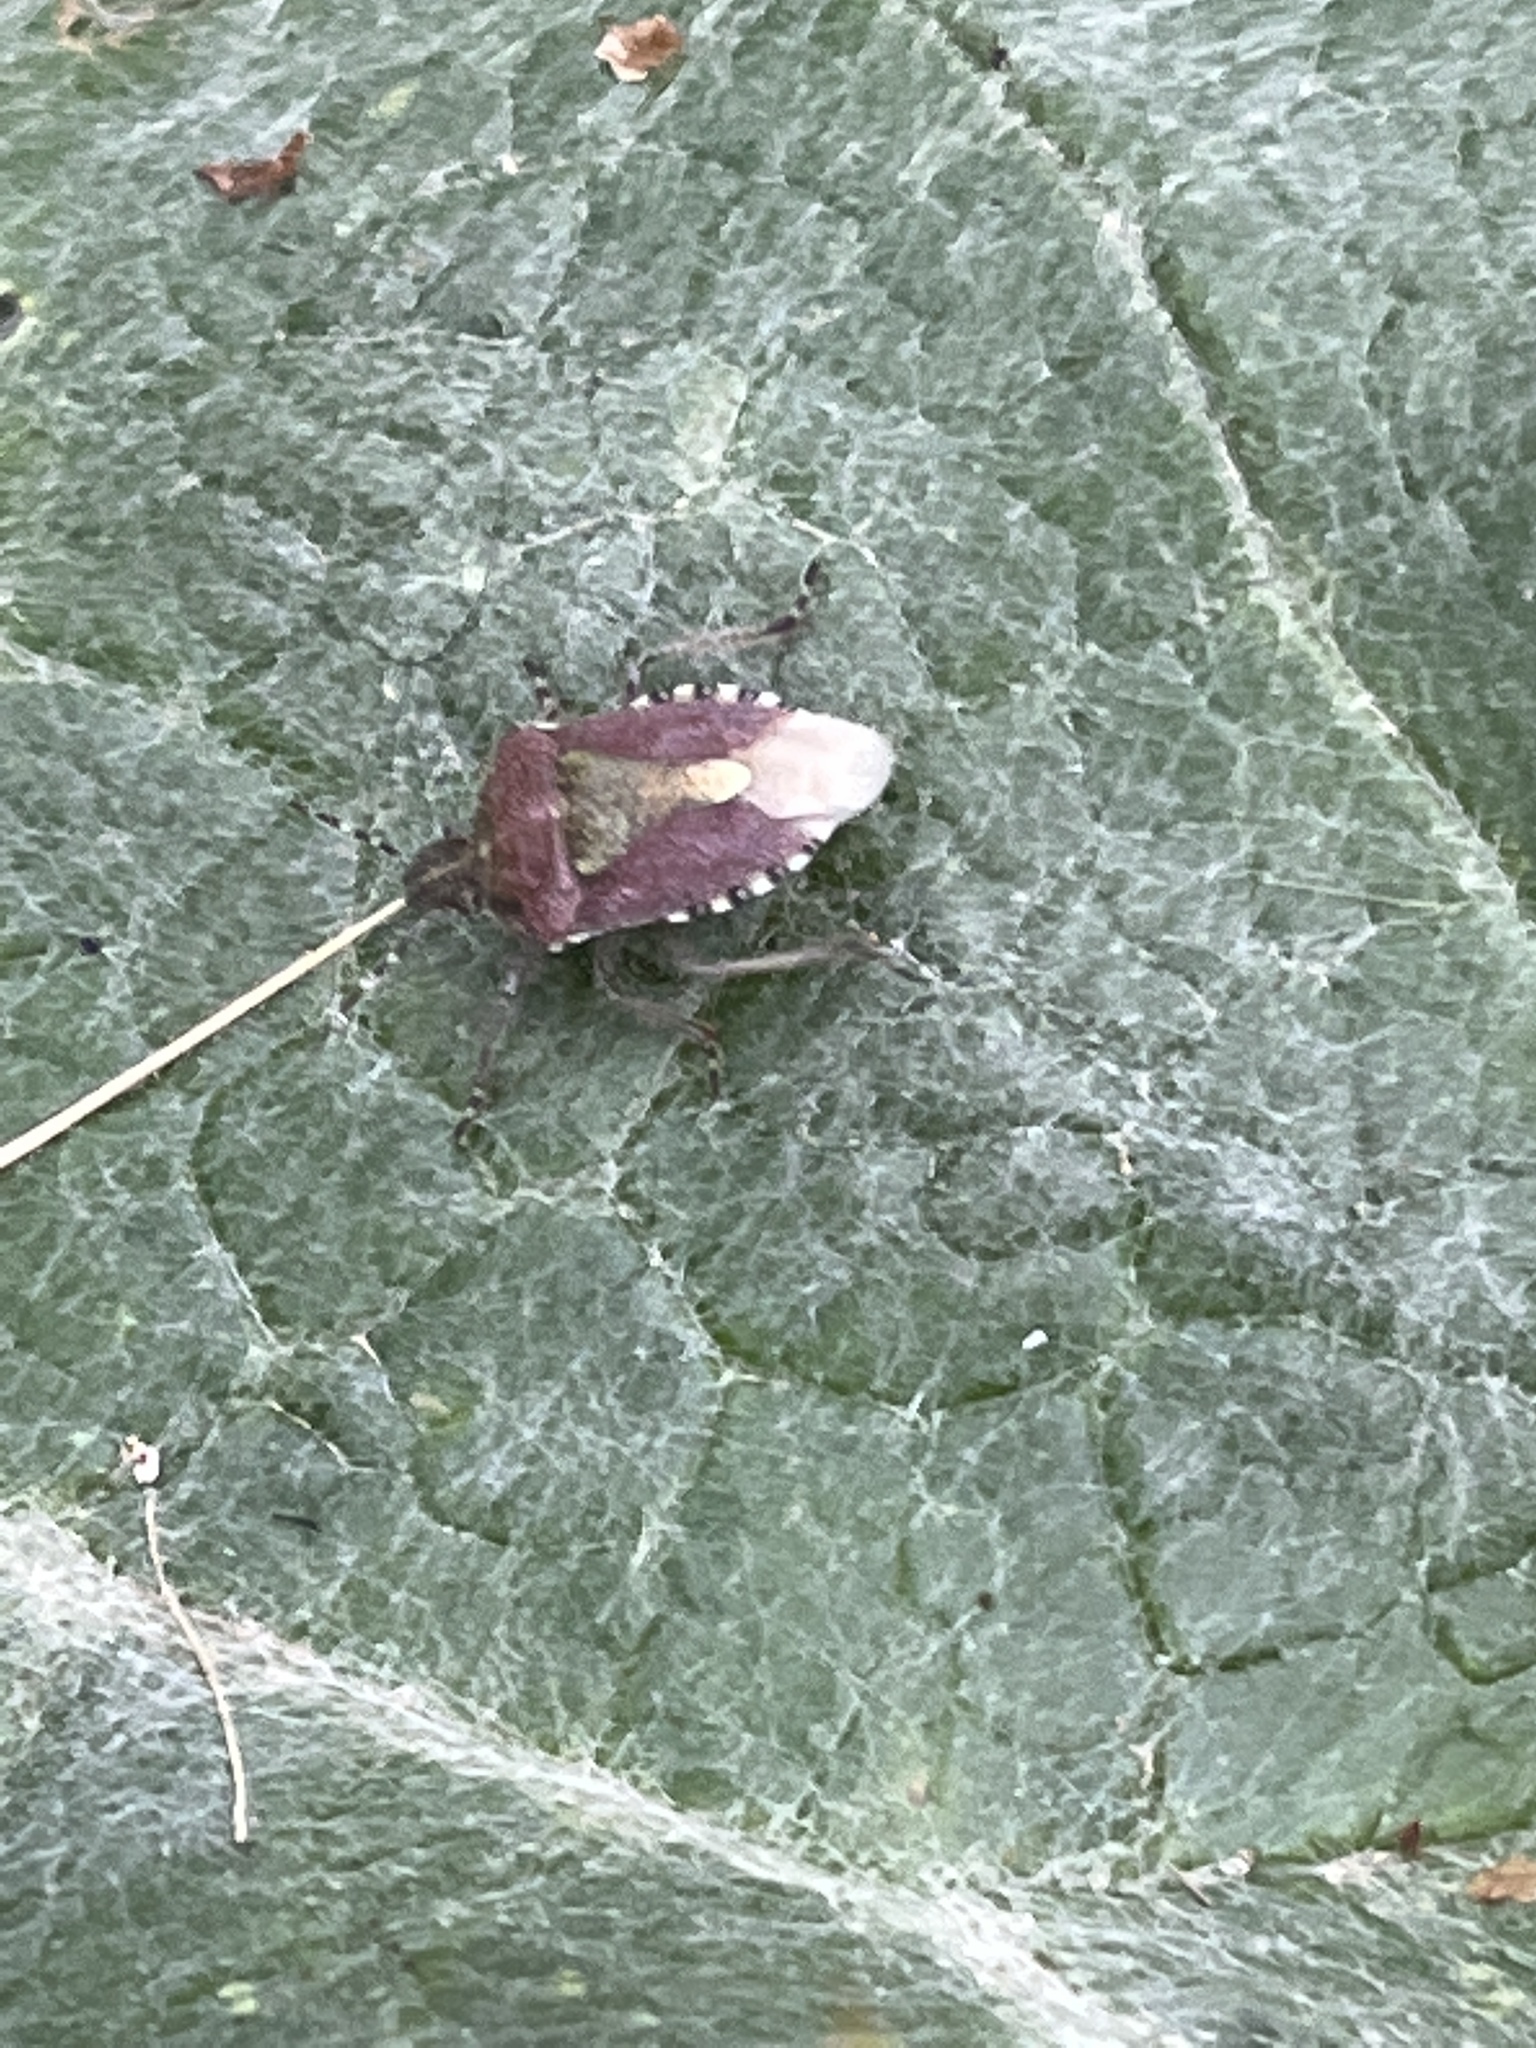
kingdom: Animalia
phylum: Arthropoda
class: Insecta
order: Hemiptera
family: Pentatomidae
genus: Dolycoris
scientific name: Dolycoris baccarum
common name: Sloe bug
